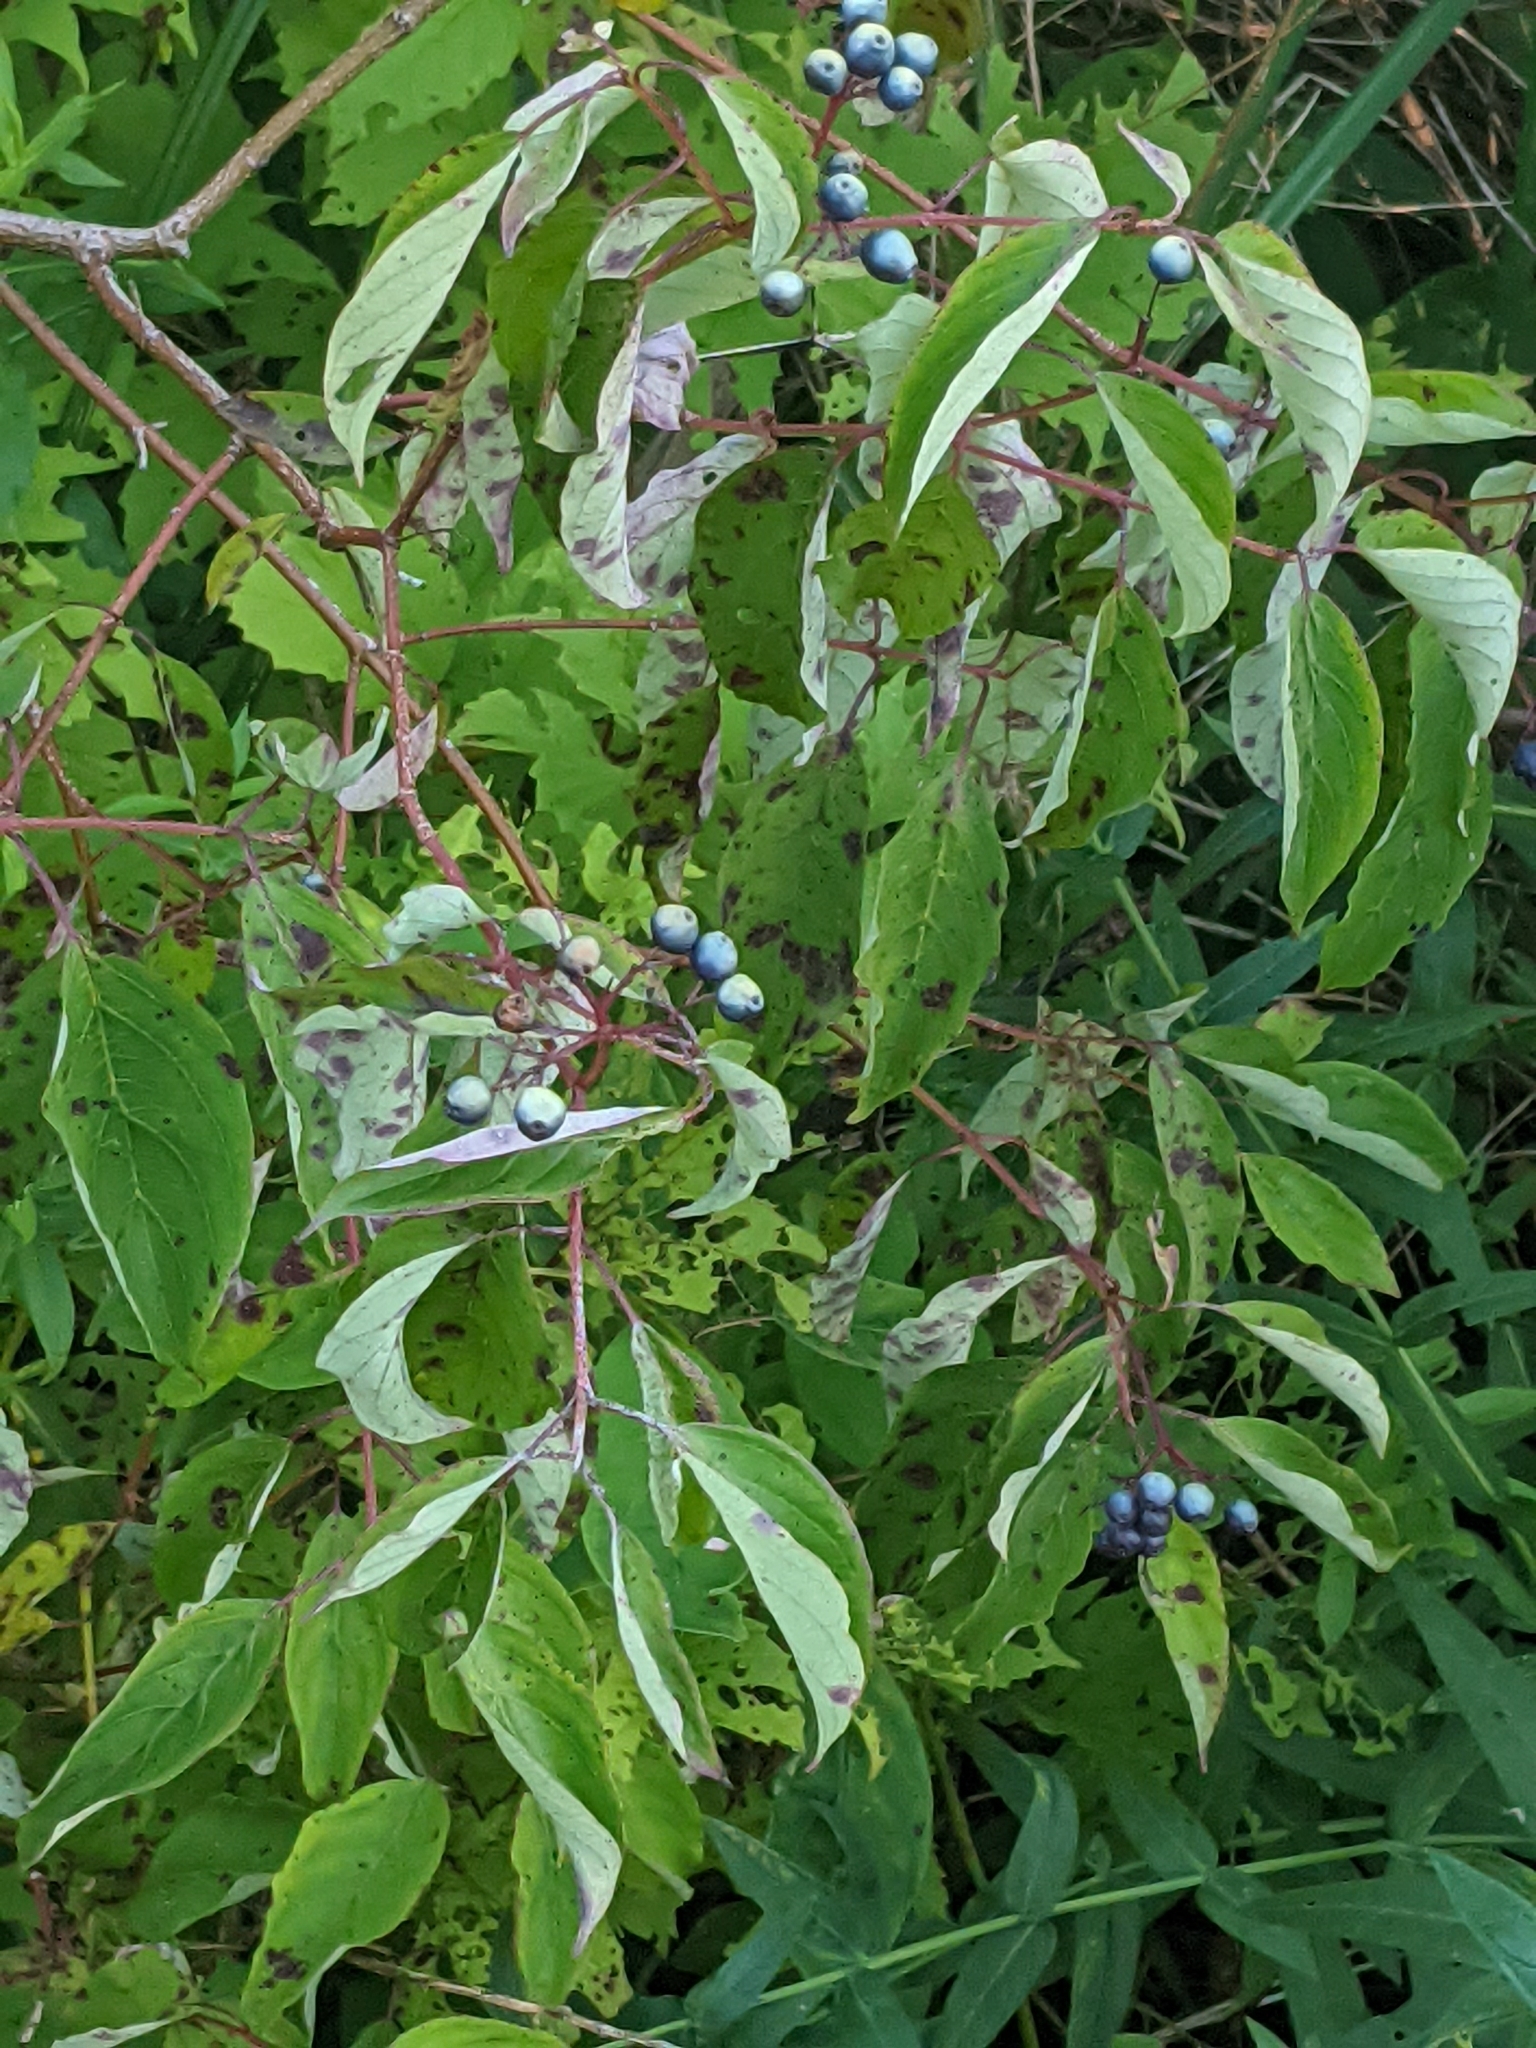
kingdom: Plantae
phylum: Tracheophyta
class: Magnoliopsida
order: Cornales
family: Cornaceae
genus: Cornus
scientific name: Cornus amomum
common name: Silky dogwood
